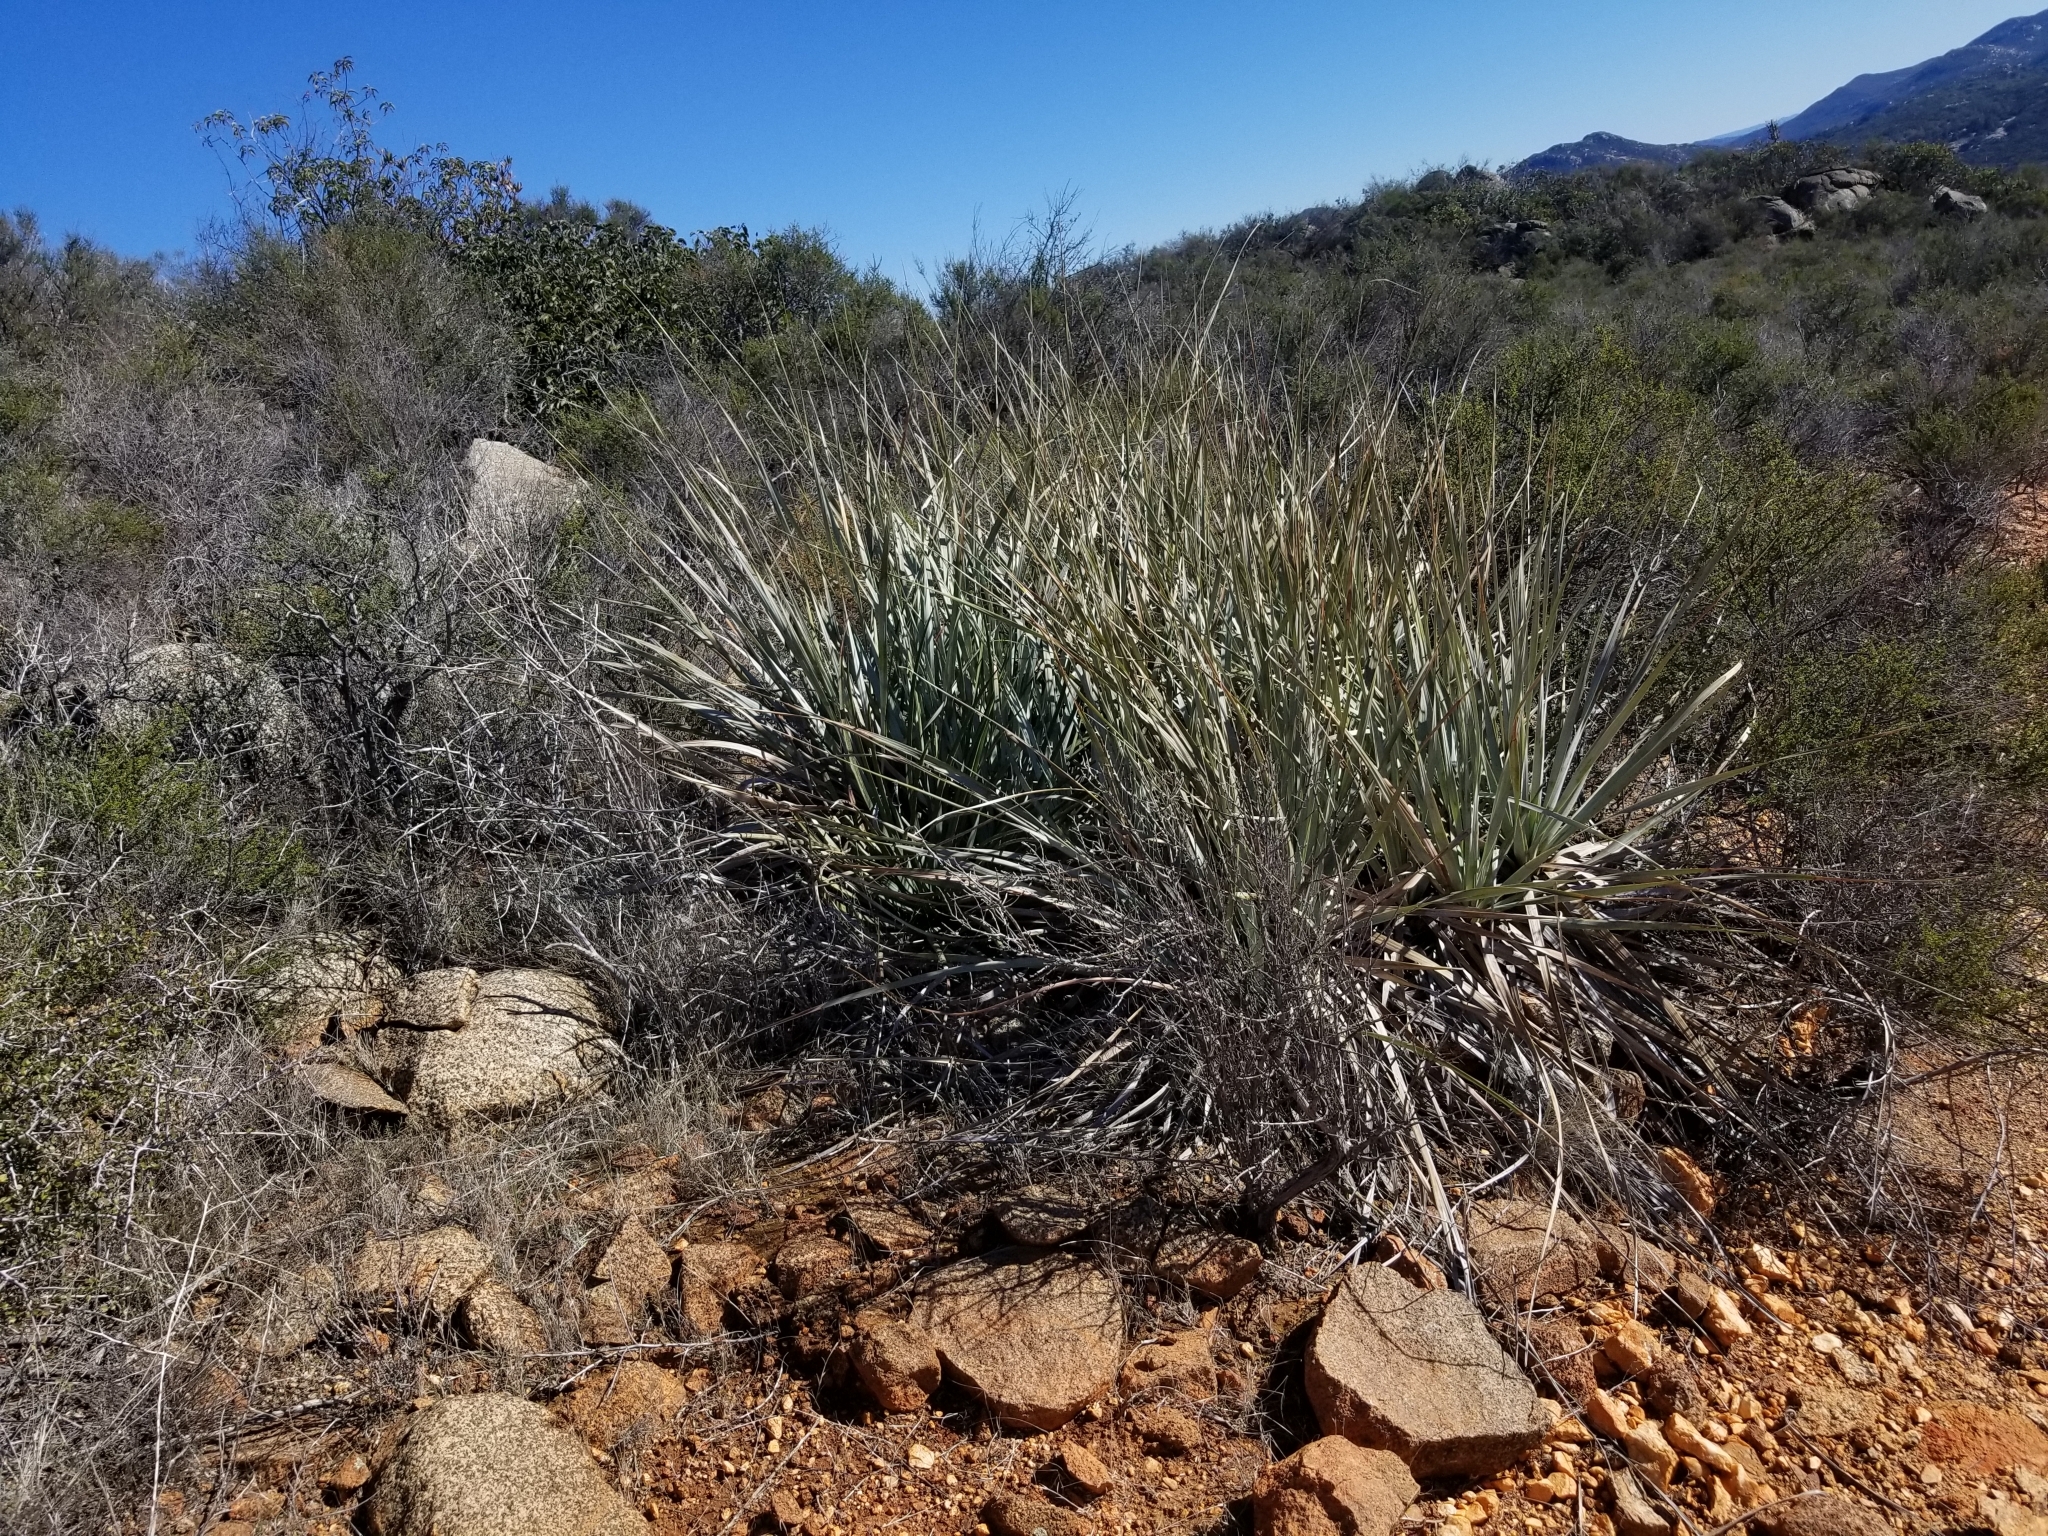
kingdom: Plantae
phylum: Tracheophyta
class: Liliopsida
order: Asparagales
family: Asparagaceae
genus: Nolina
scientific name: Nolina interrata
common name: Dehesa bear-grass
